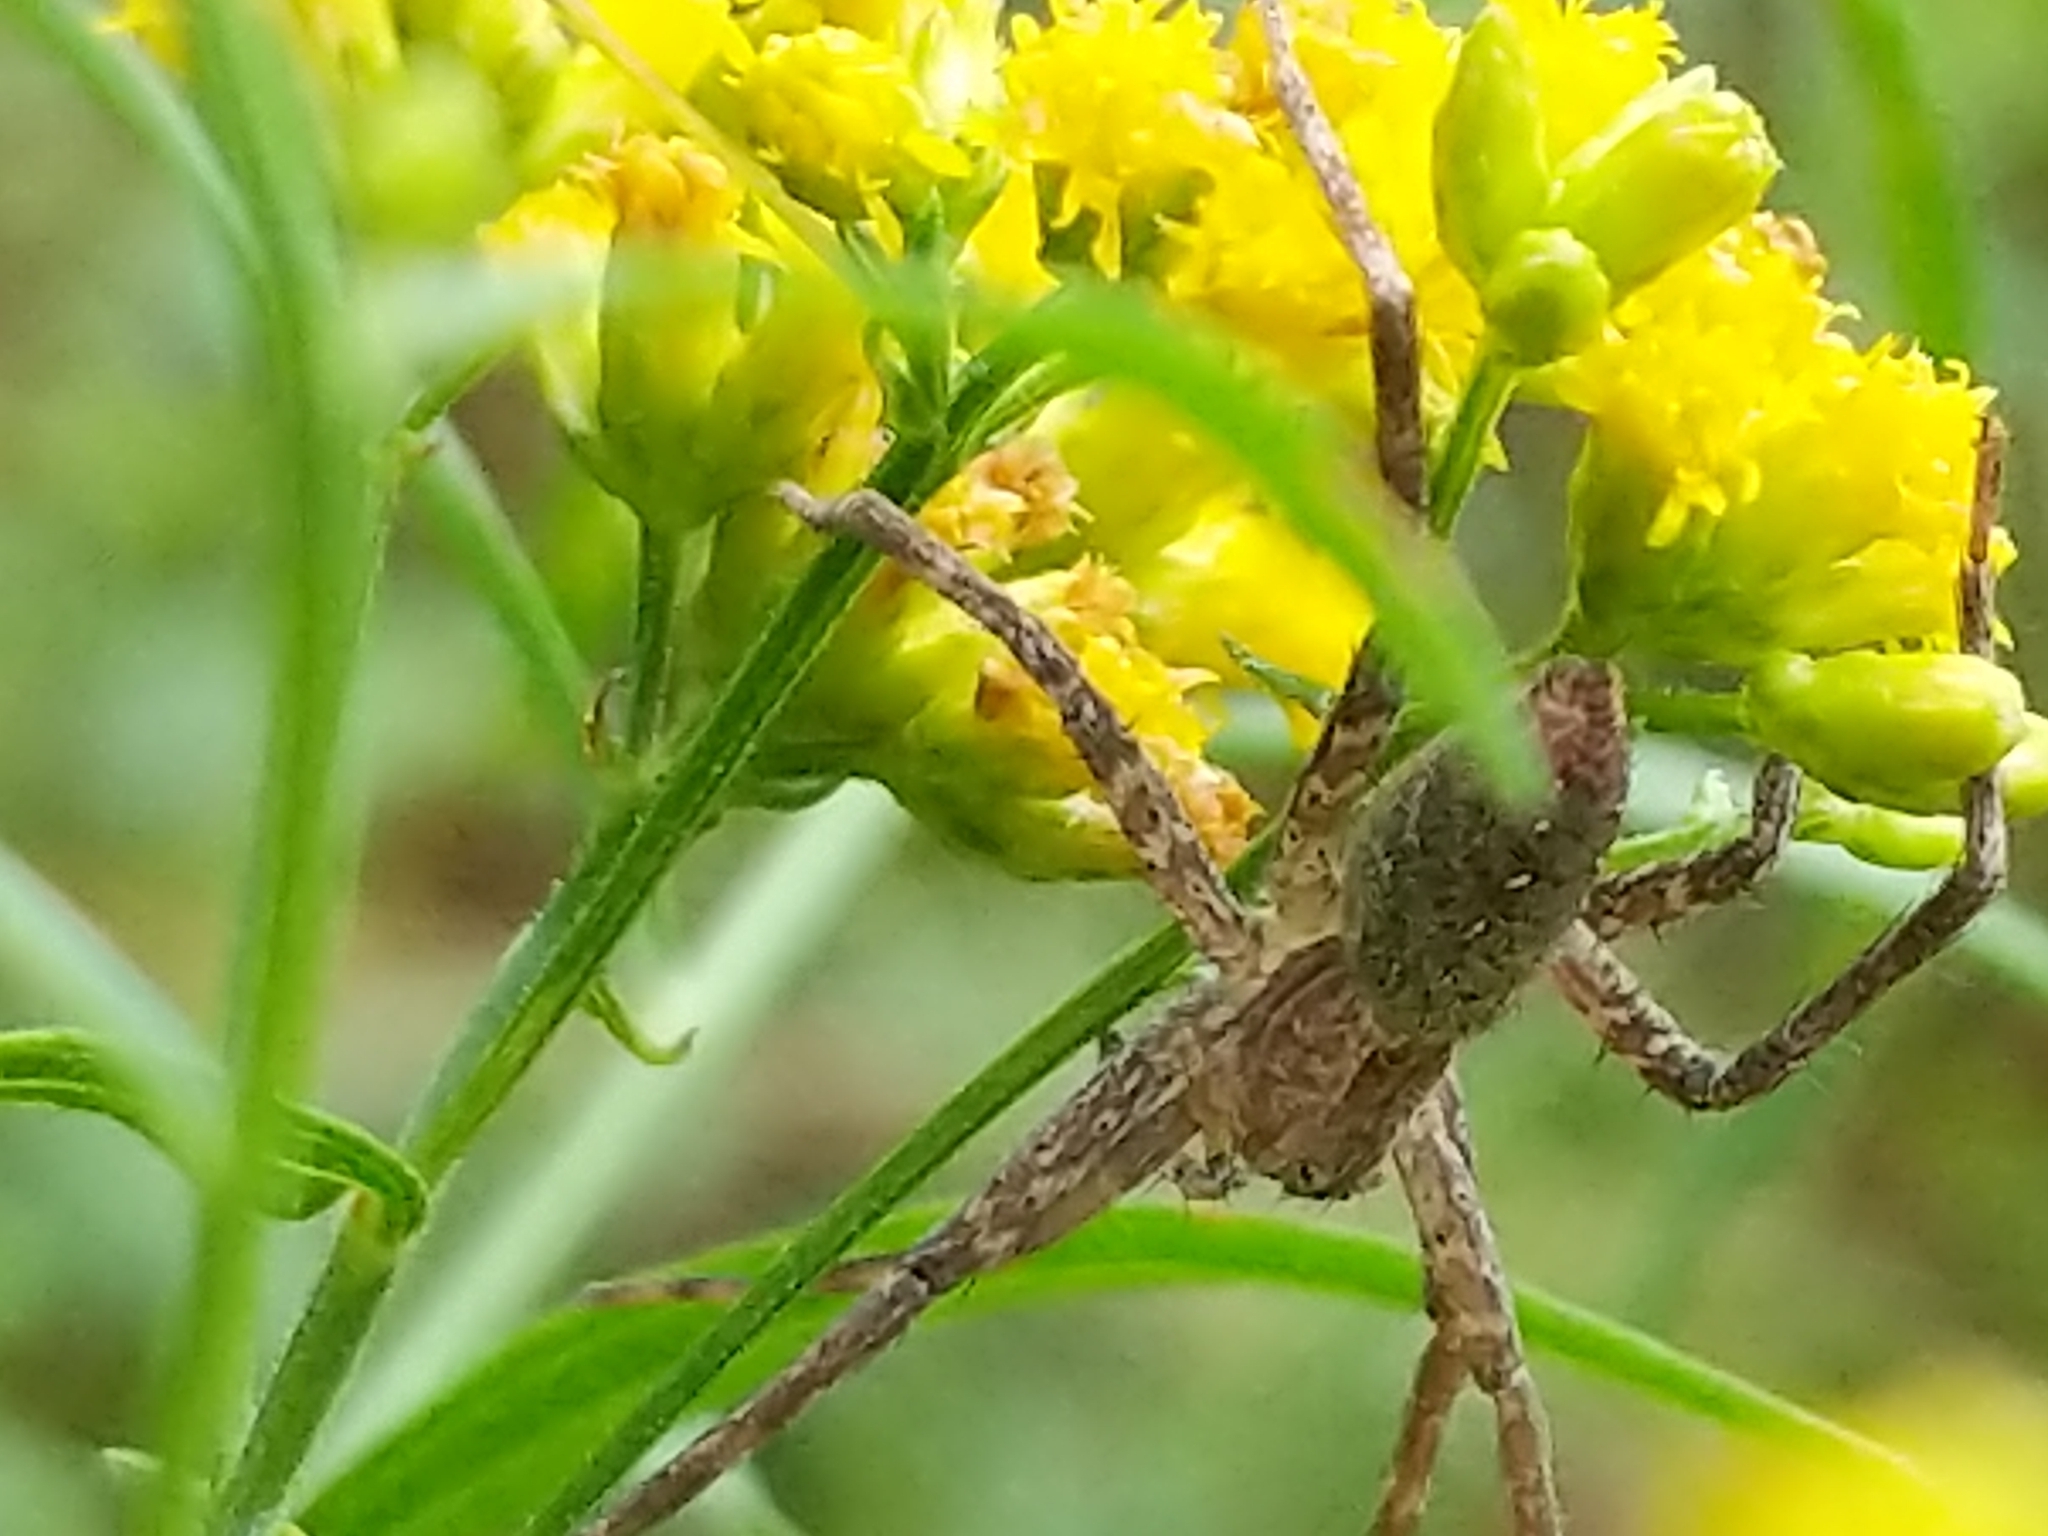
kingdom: Animalia
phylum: Arthropoda
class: Arachnida
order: Araneae
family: Pisauridae
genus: Pisaurina
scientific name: Pisaurina mira
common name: American nursery web spider
